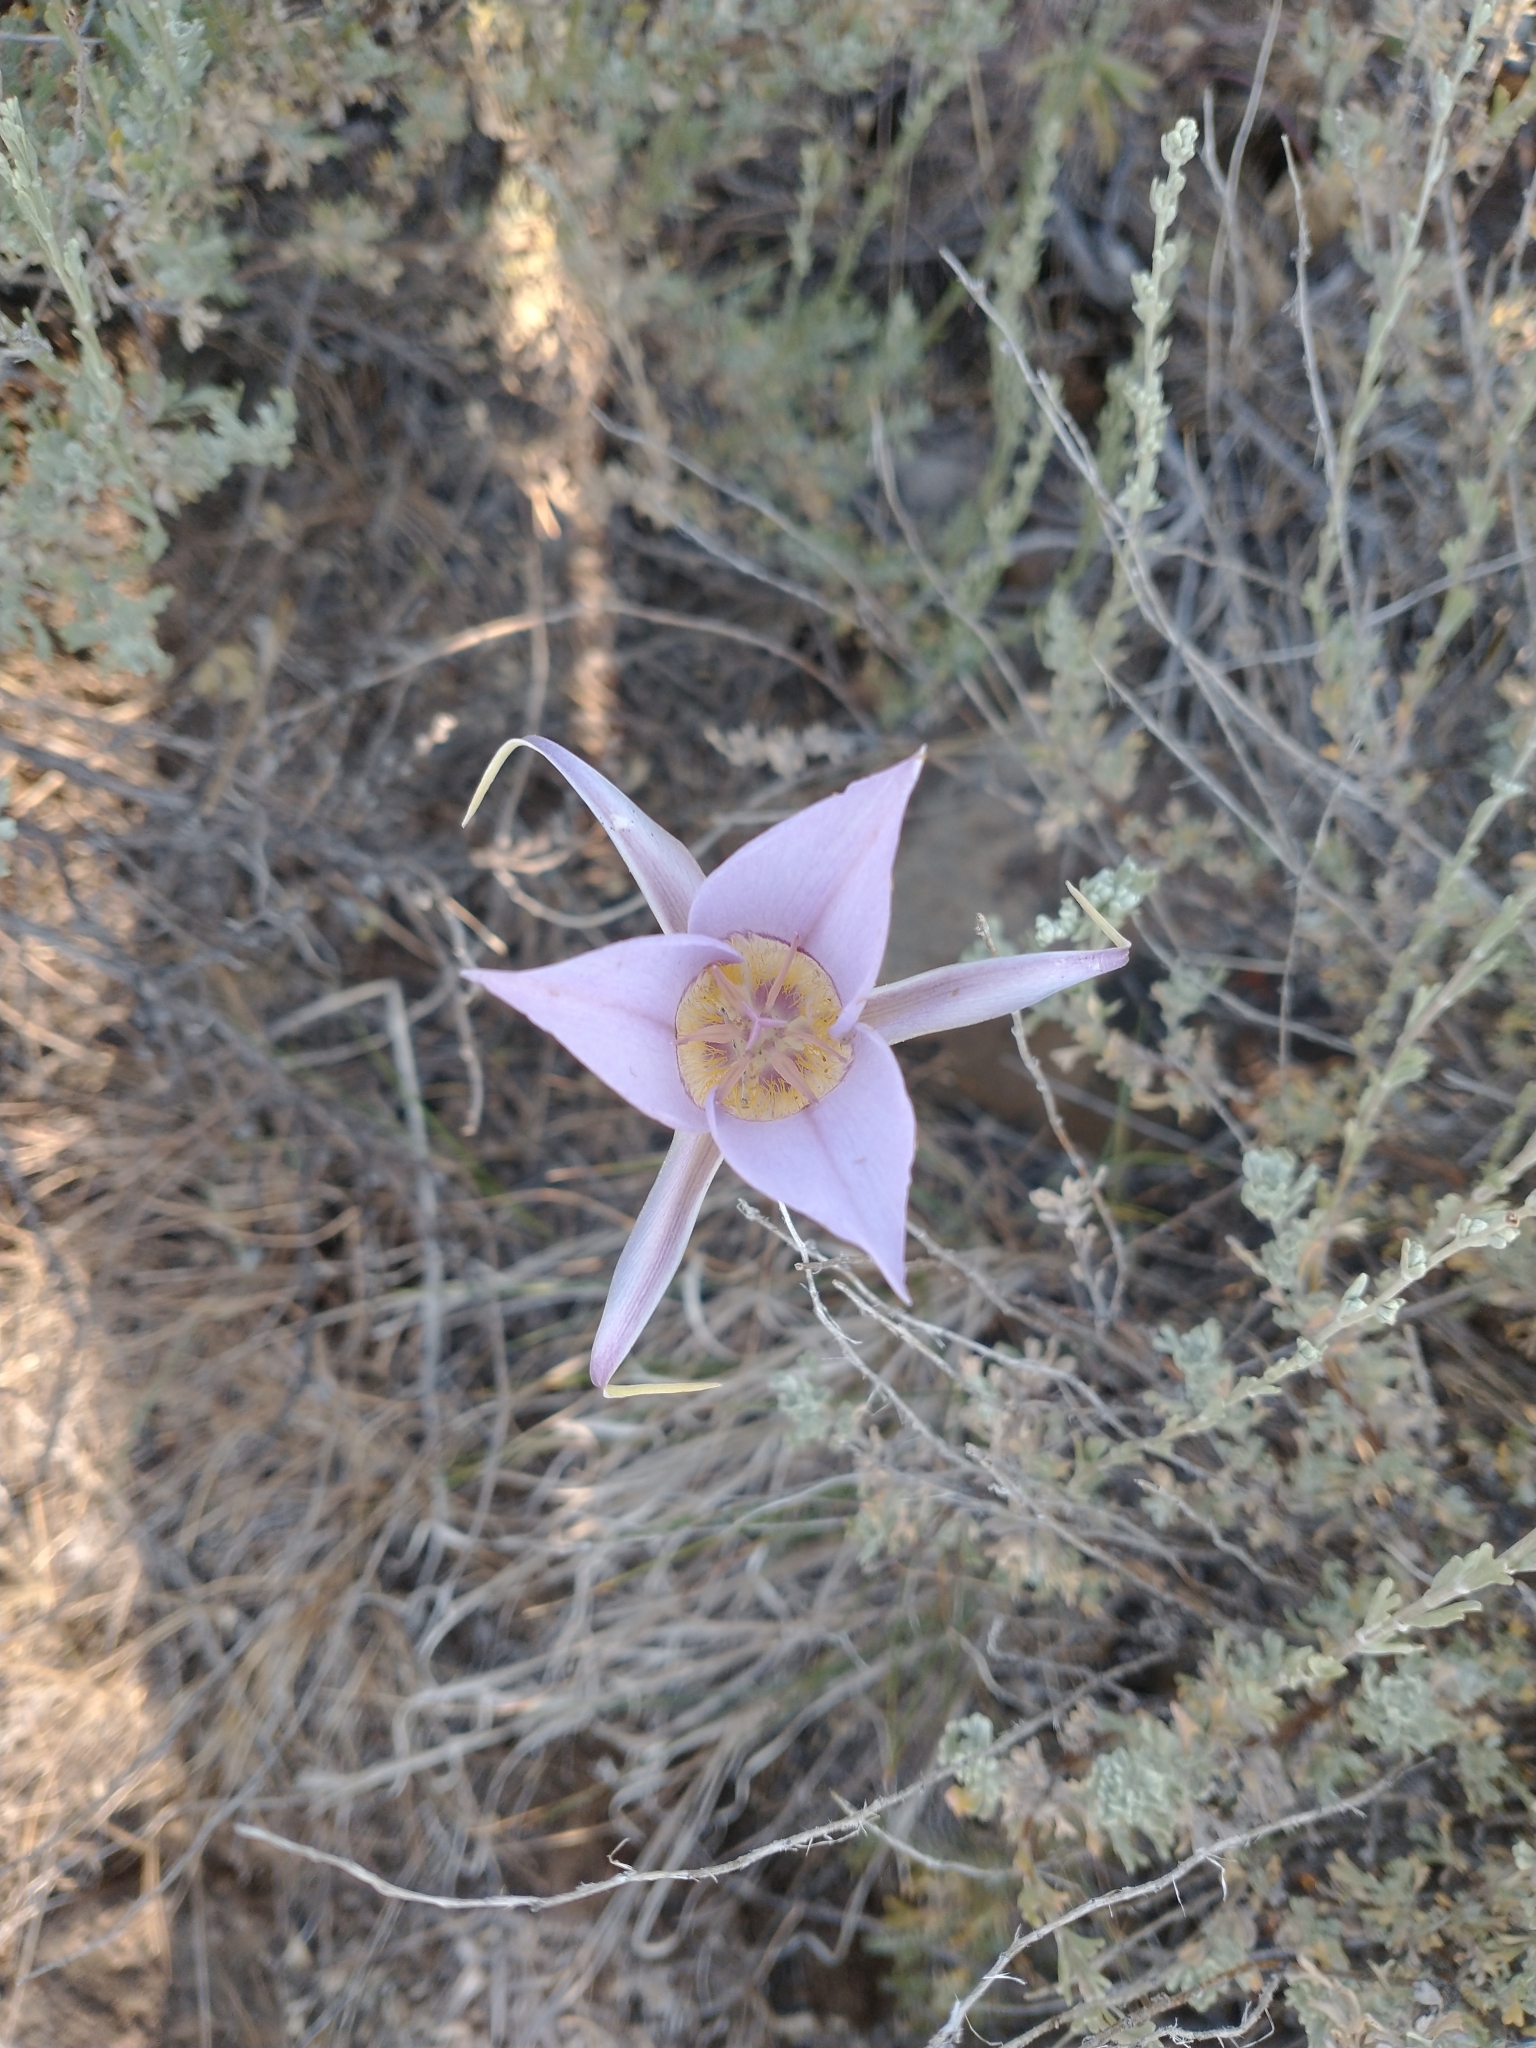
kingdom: Plantae
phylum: Tracheophyta
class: Liliopsida
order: Liliales
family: Liliaceae
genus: Calochortus
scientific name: Calochortus macrocarpus
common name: Green-band mariposa lily
